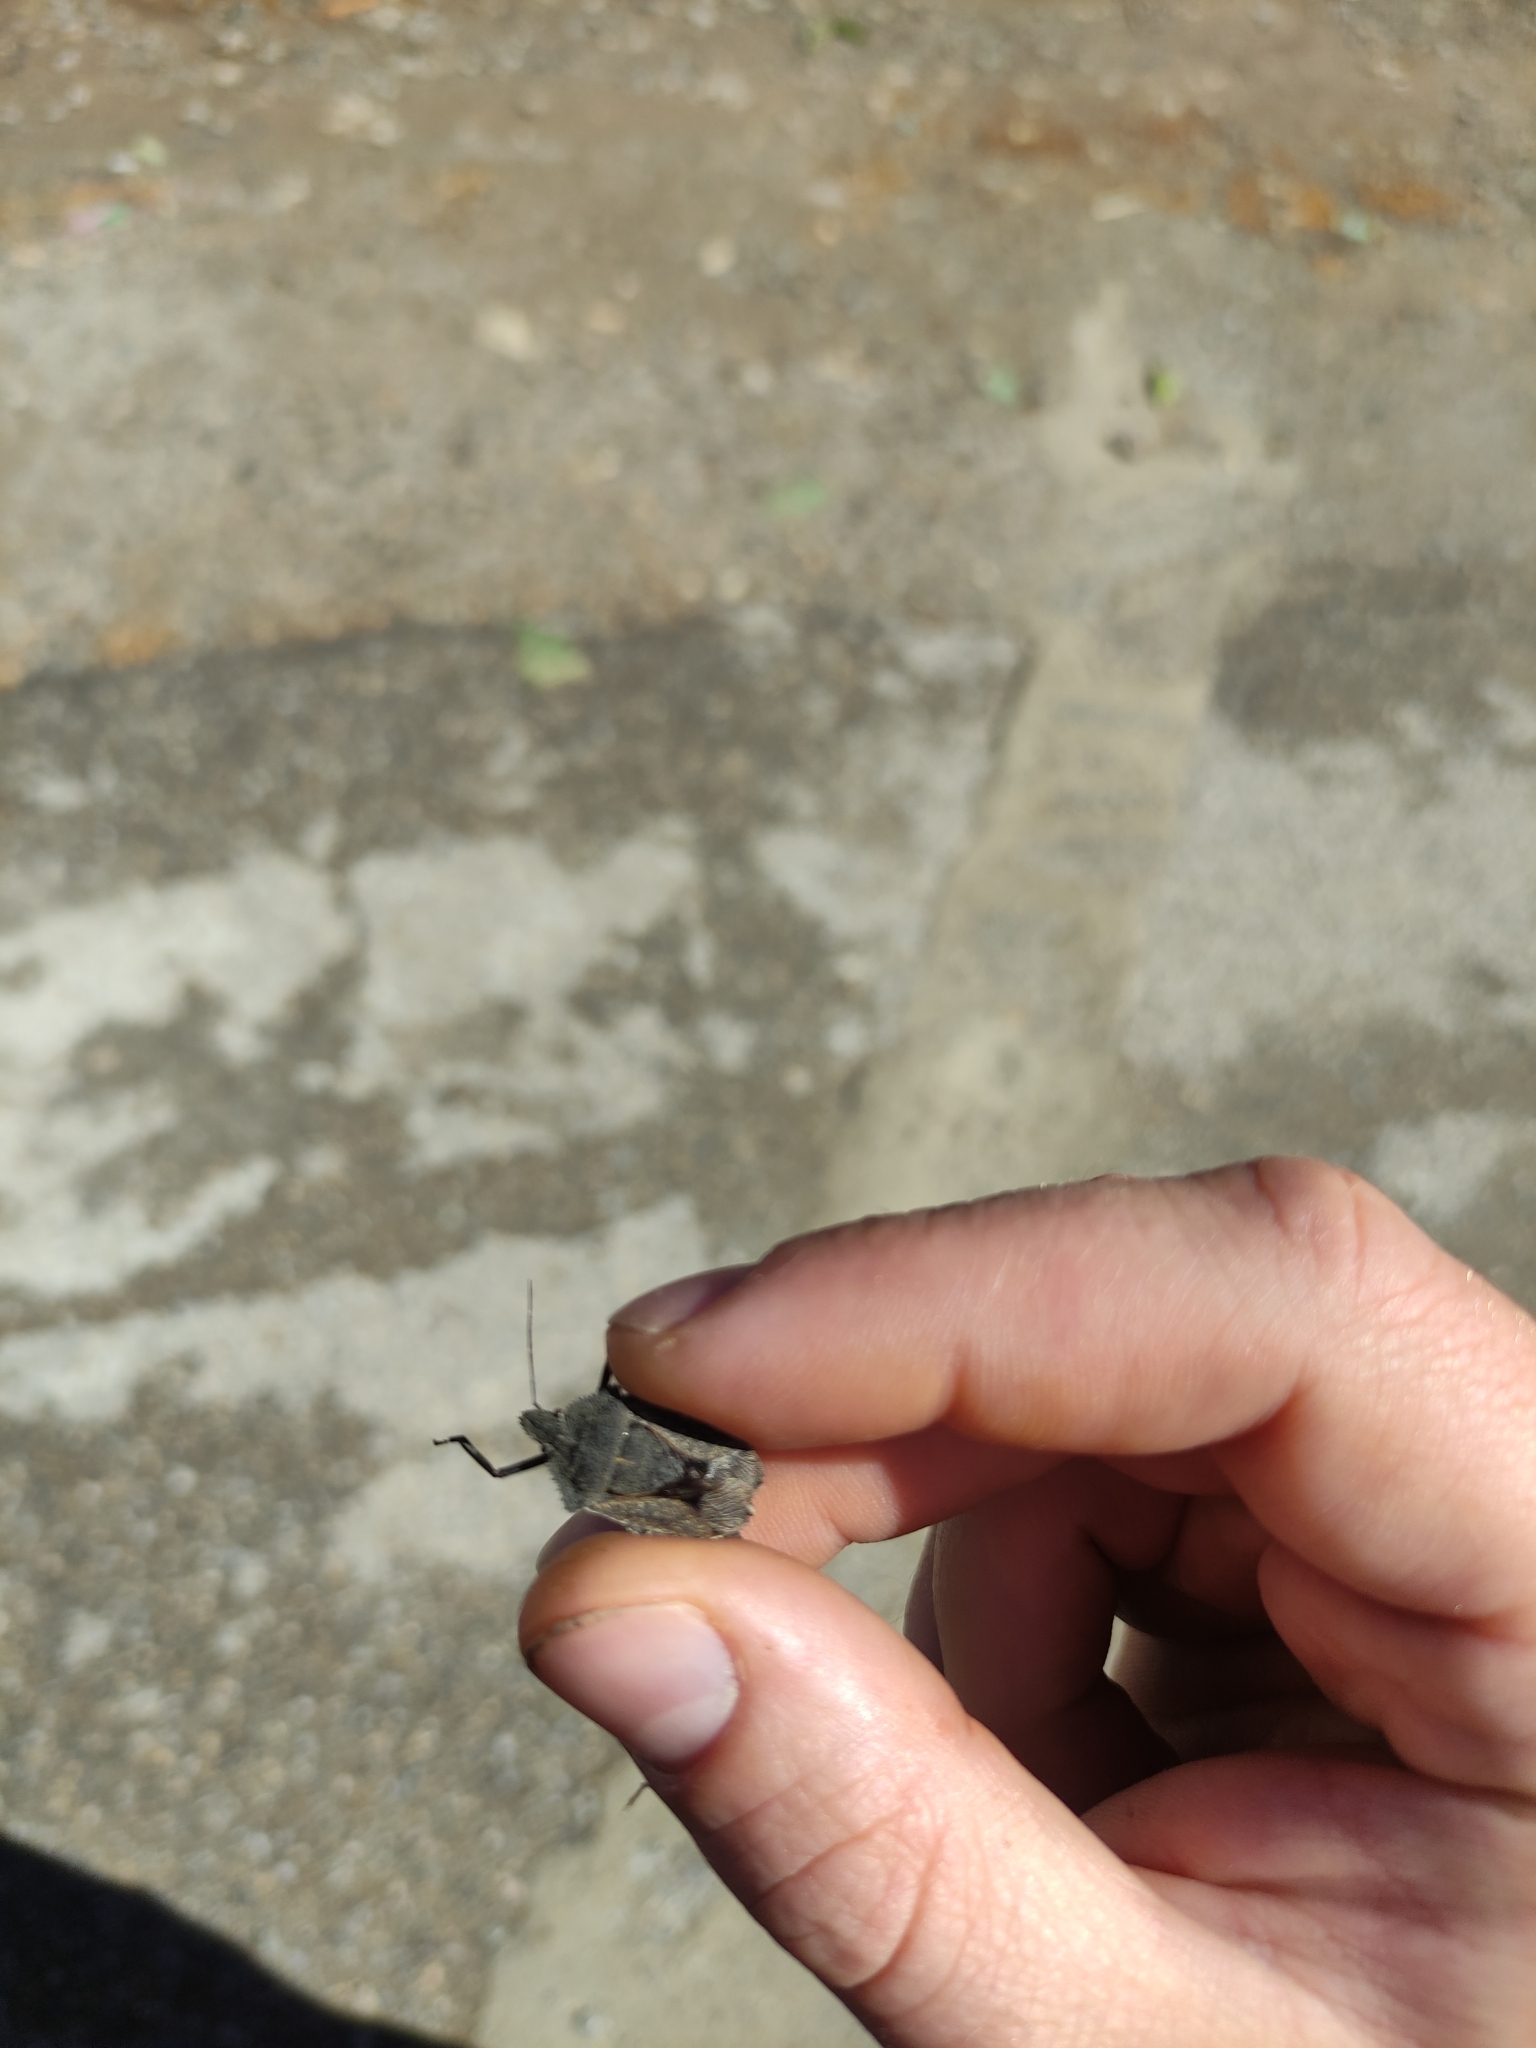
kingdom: Animalia
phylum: Arthropoda
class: Insecta
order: Hemiptera
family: Pentatomidae
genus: Mustha
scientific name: Mustha spinosula
